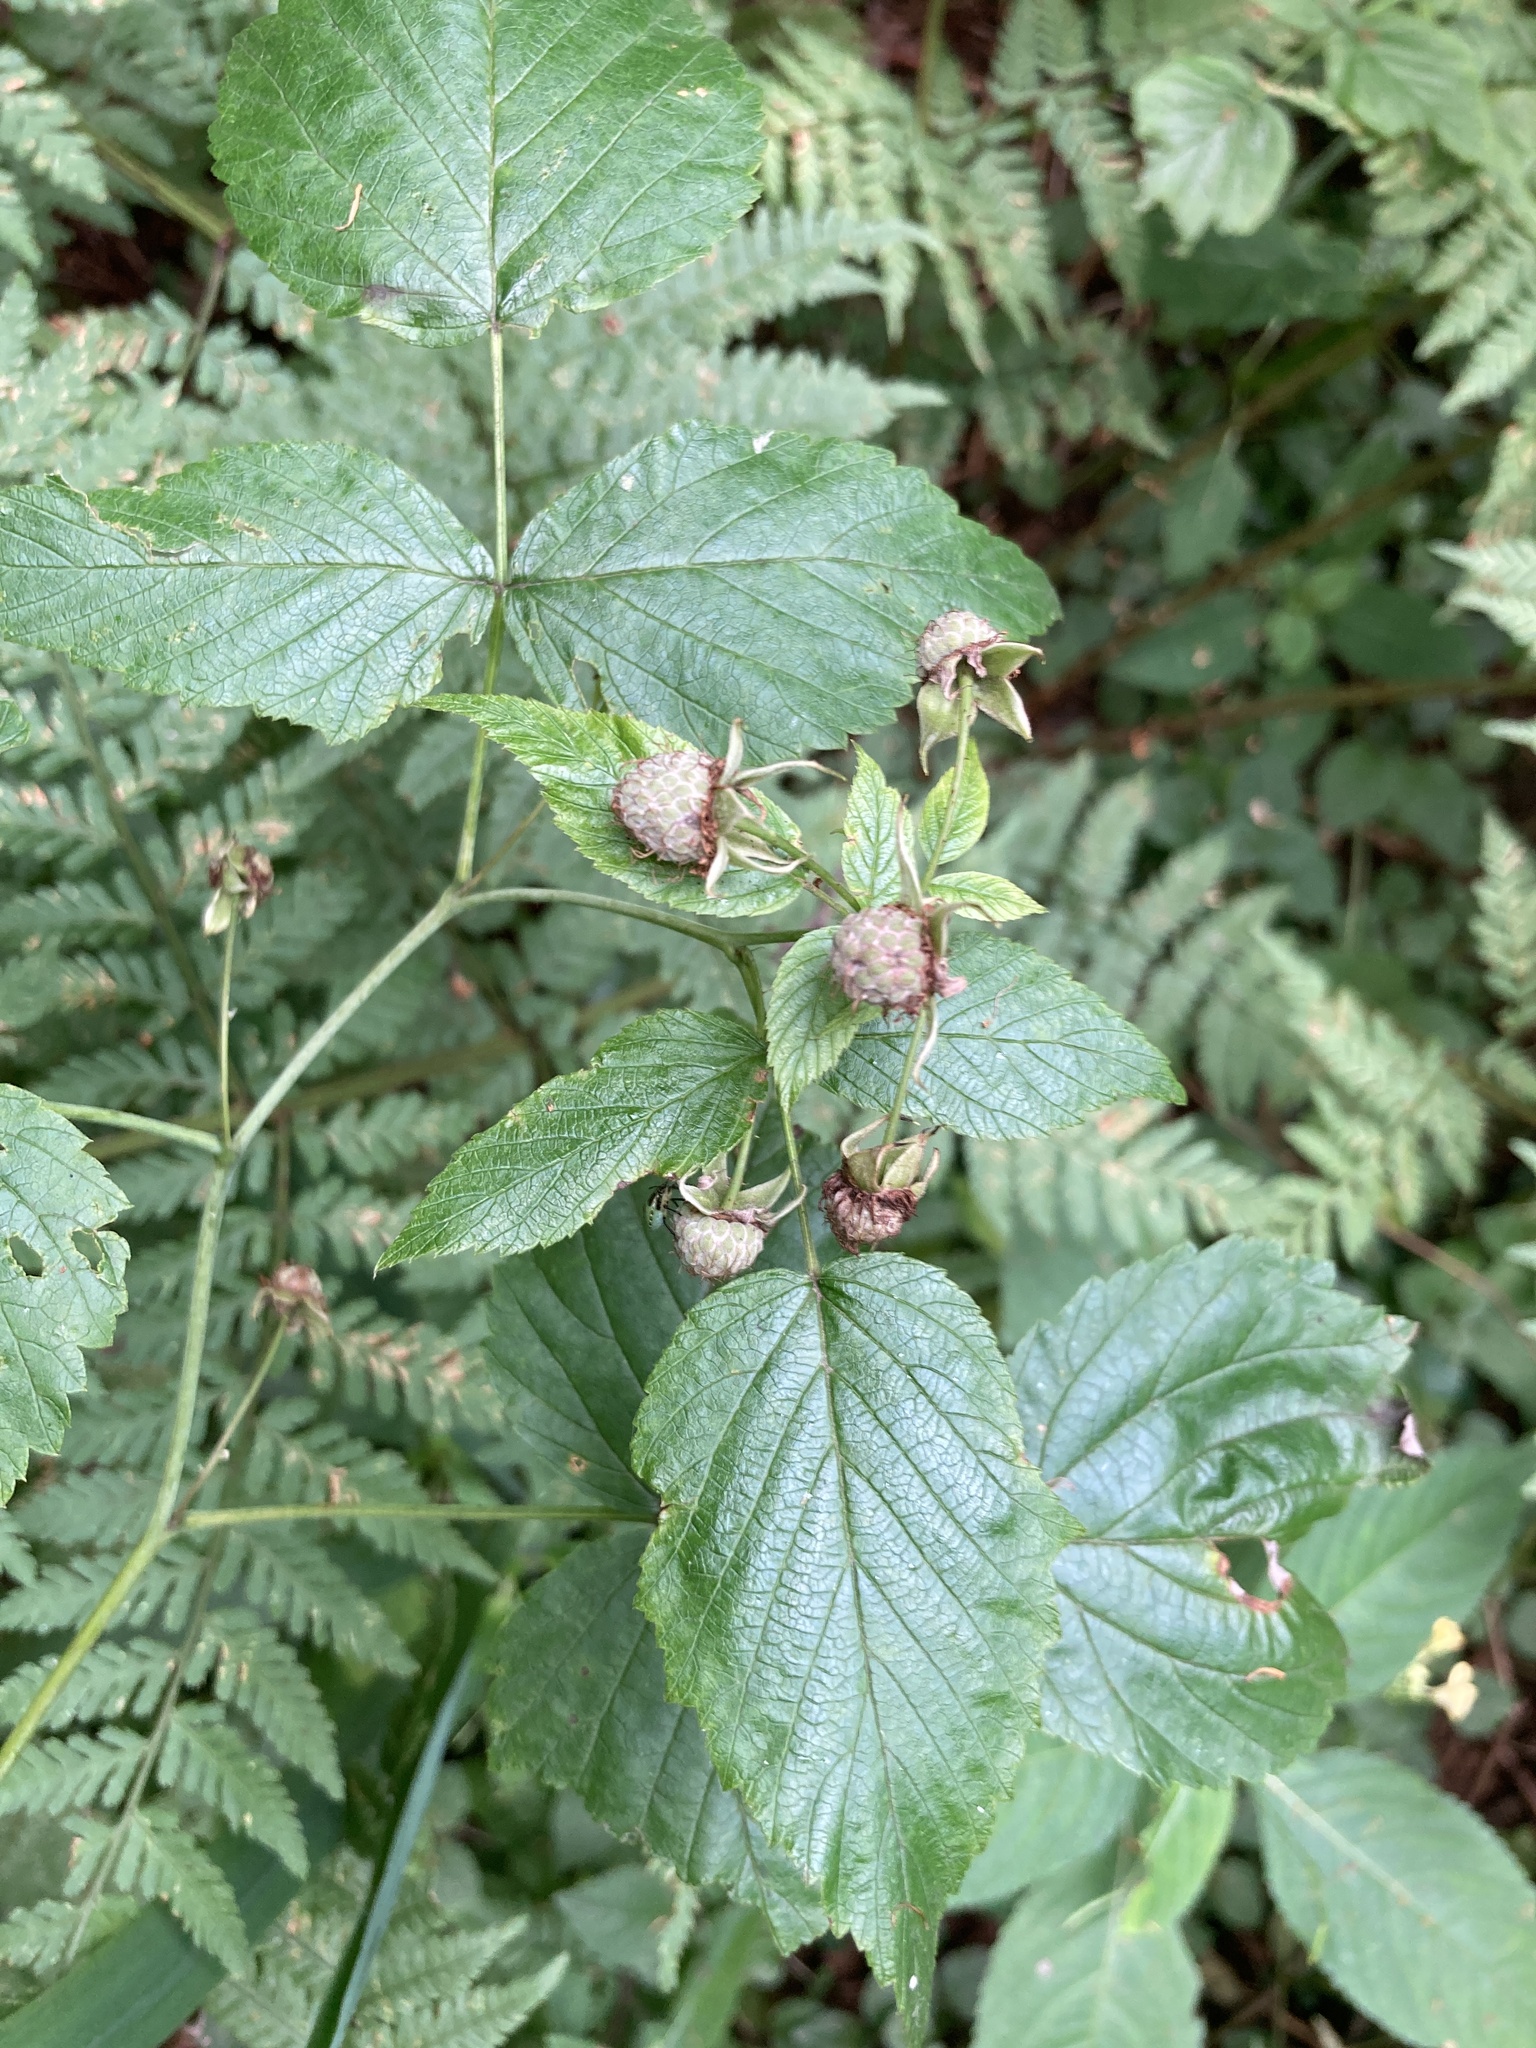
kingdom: Plantae
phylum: Tracheophyta
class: Magnoliopsida
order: Rosales
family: Rosaceae
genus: Rubus
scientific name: Rubus idaeus
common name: Raspberry
